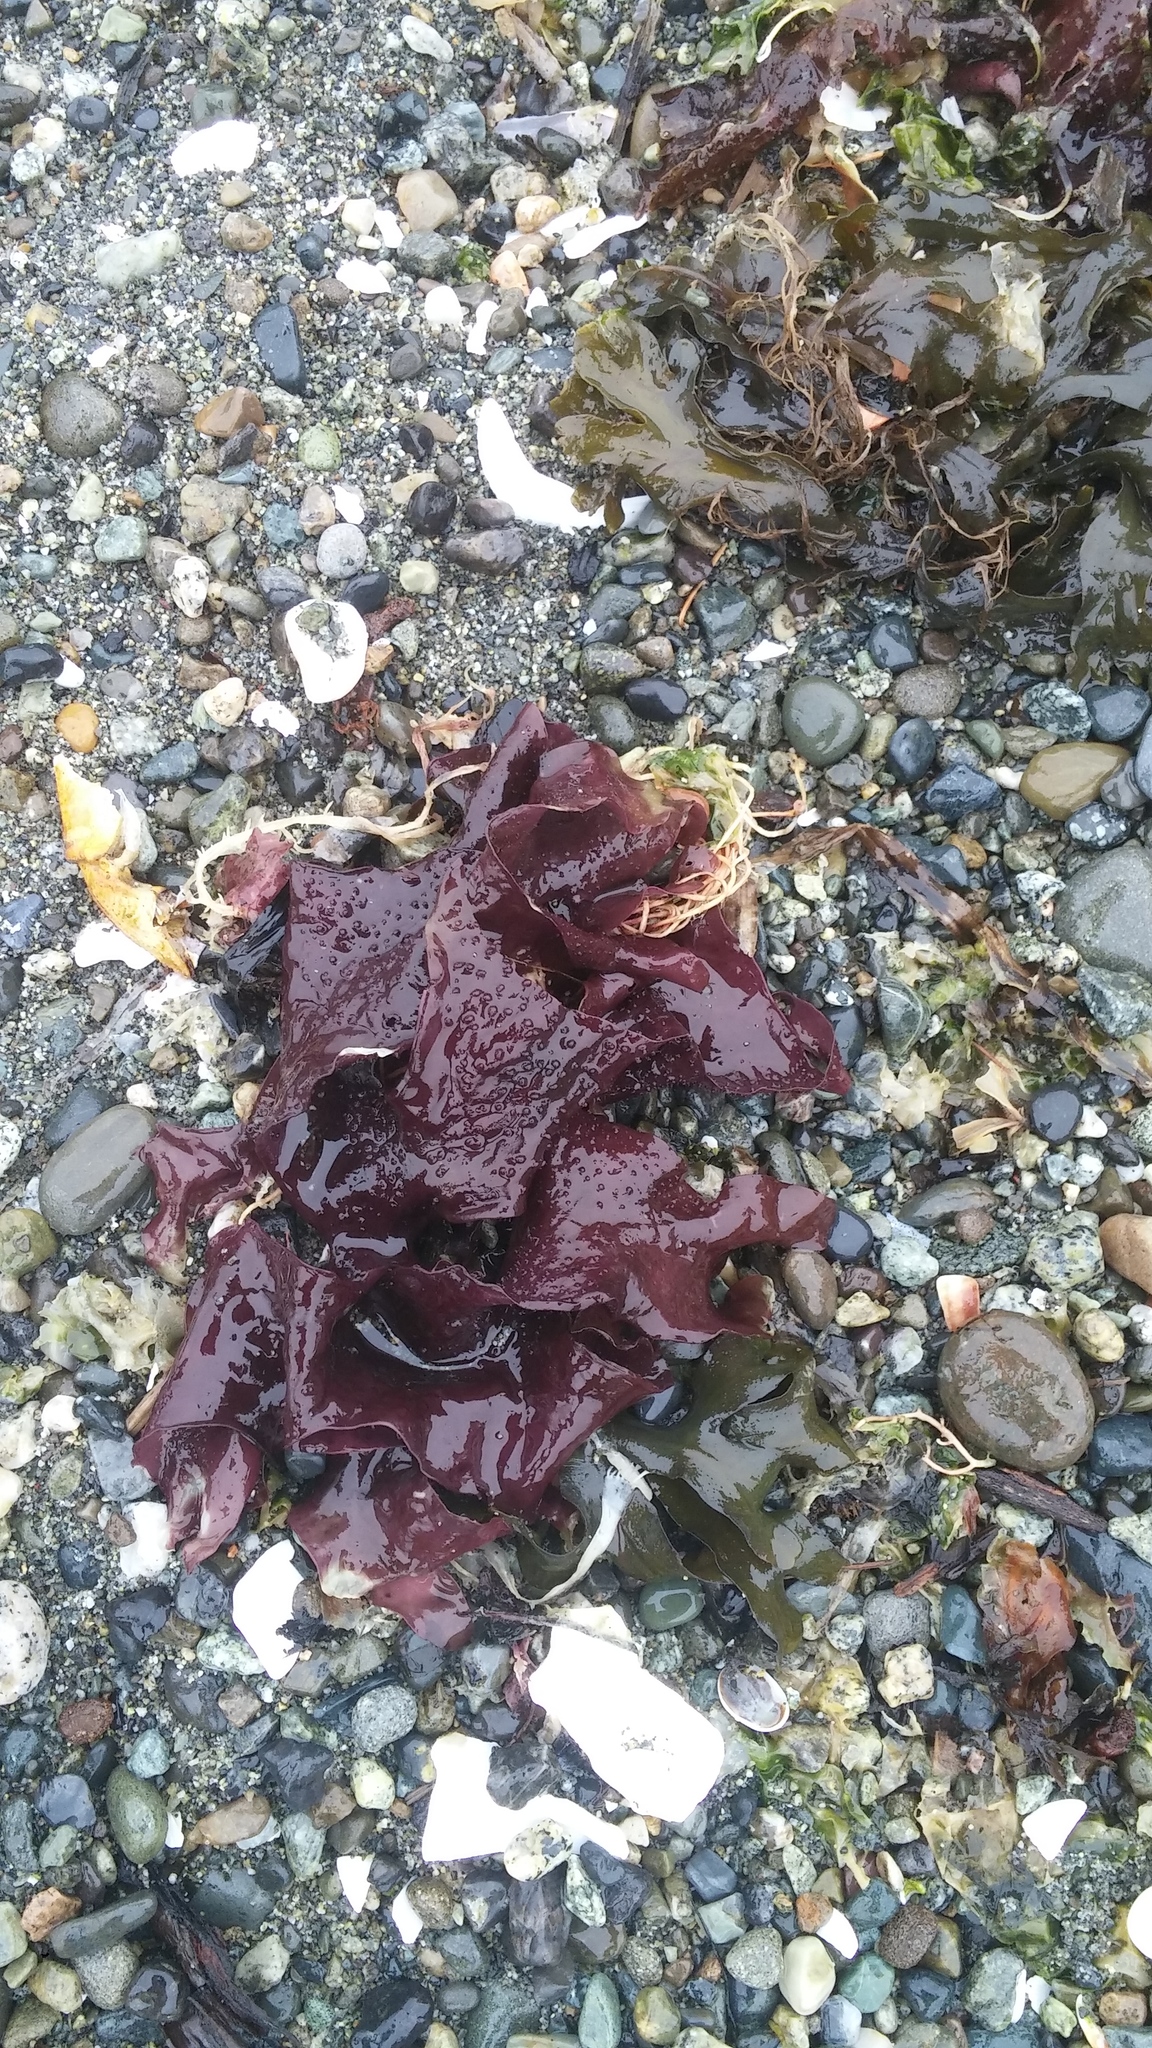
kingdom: Plantae
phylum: Rhodophyta
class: Florideophyceae
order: Gigartinales
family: Gigartinaceae
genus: Chondracanthus
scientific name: Chondracanthus exasperatus
